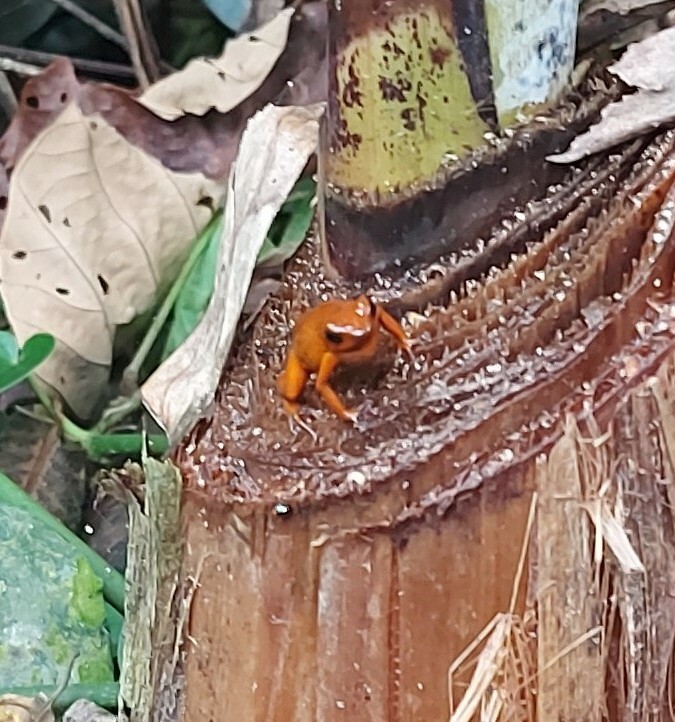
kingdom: Animalia
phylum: Chordata
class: Amphibia
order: Anura
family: Dendrobatidae
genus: Oophaga
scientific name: Oophaga pumilio
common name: Flaming poison frog
